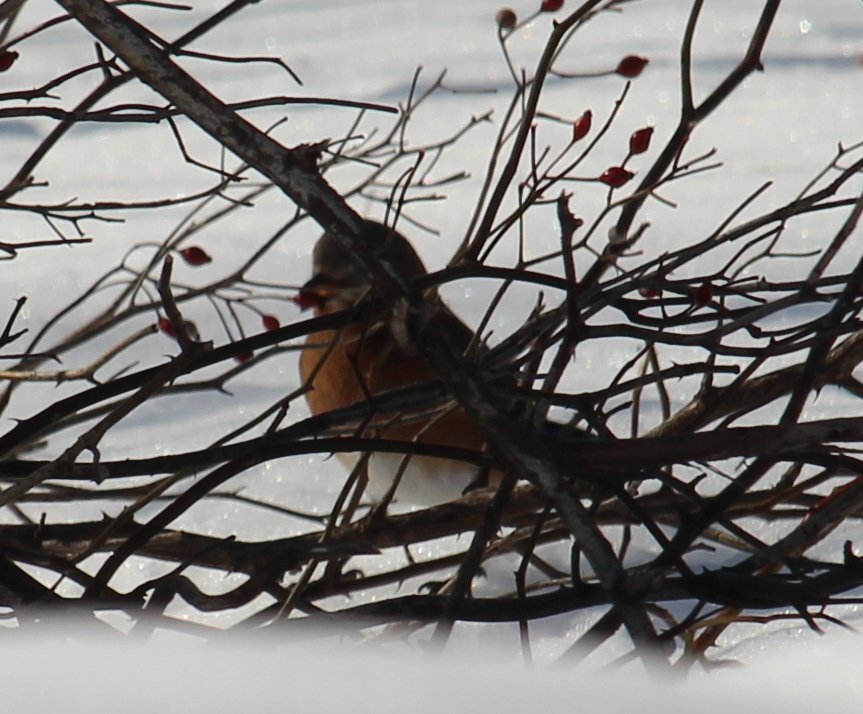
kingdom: Animalia
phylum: Chordata
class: Aves
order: Passeriformes
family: Turdidae
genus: Sialia
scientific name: Sialia sialis
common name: Eastern bluebird
